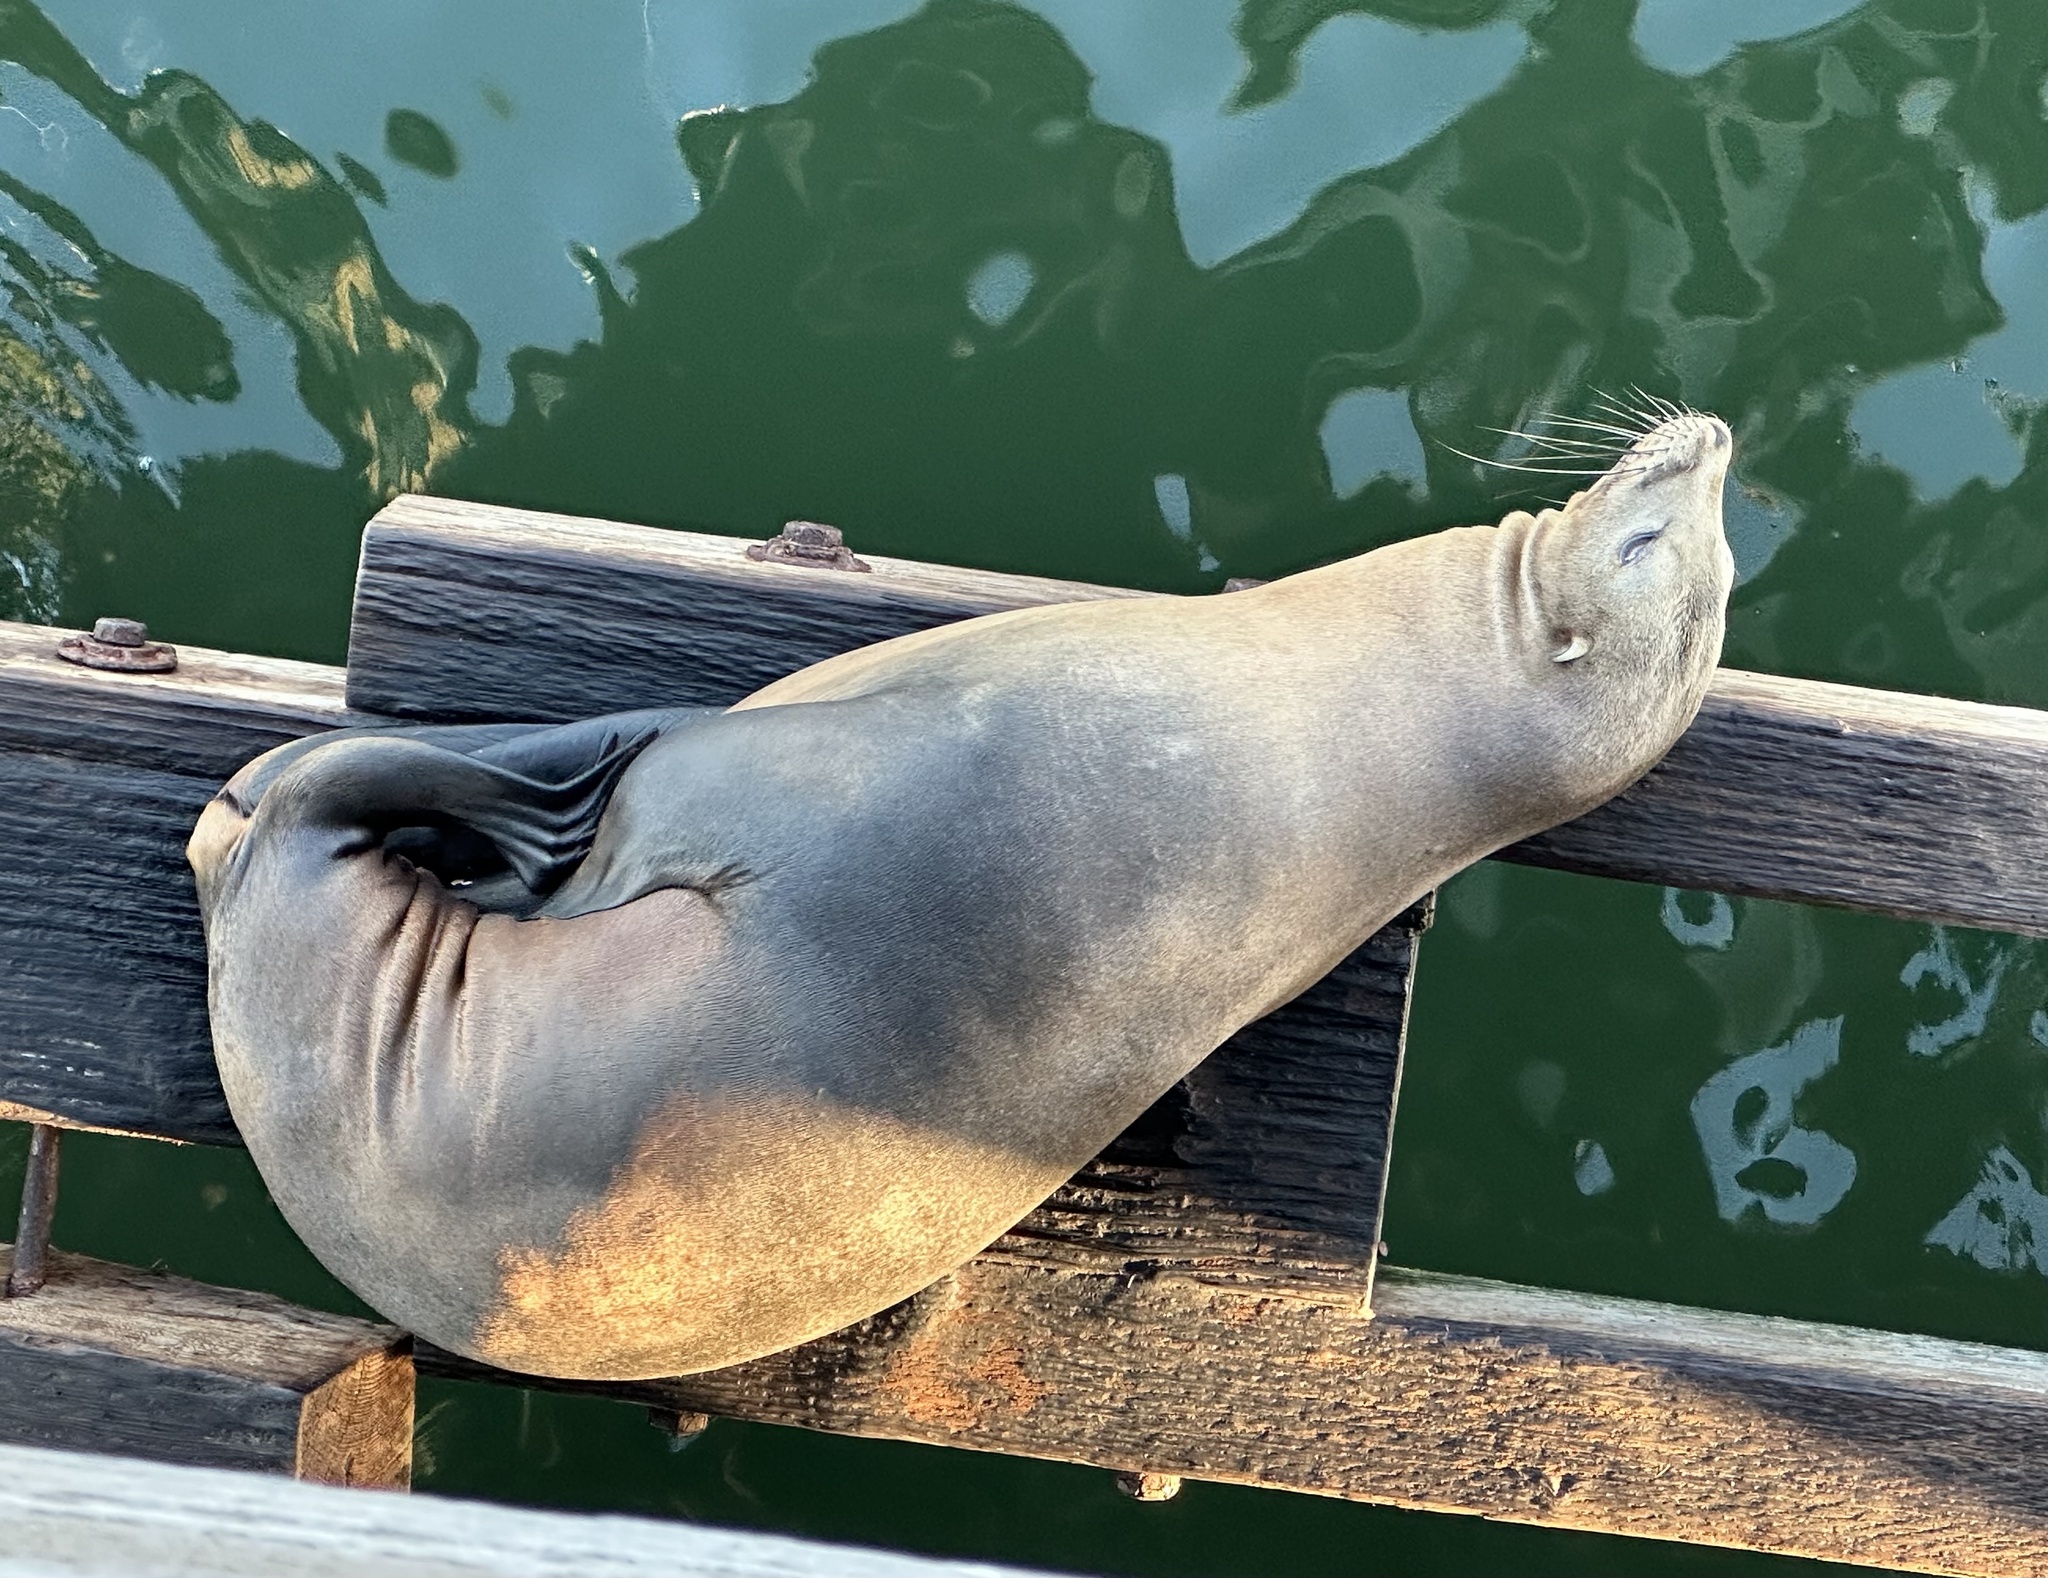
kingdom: Animalia
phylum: Chordata
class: Mammalia
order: Carnivora
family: Otariidae
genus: Zalophus
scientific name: Zalophus californianus
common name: California sea lion
